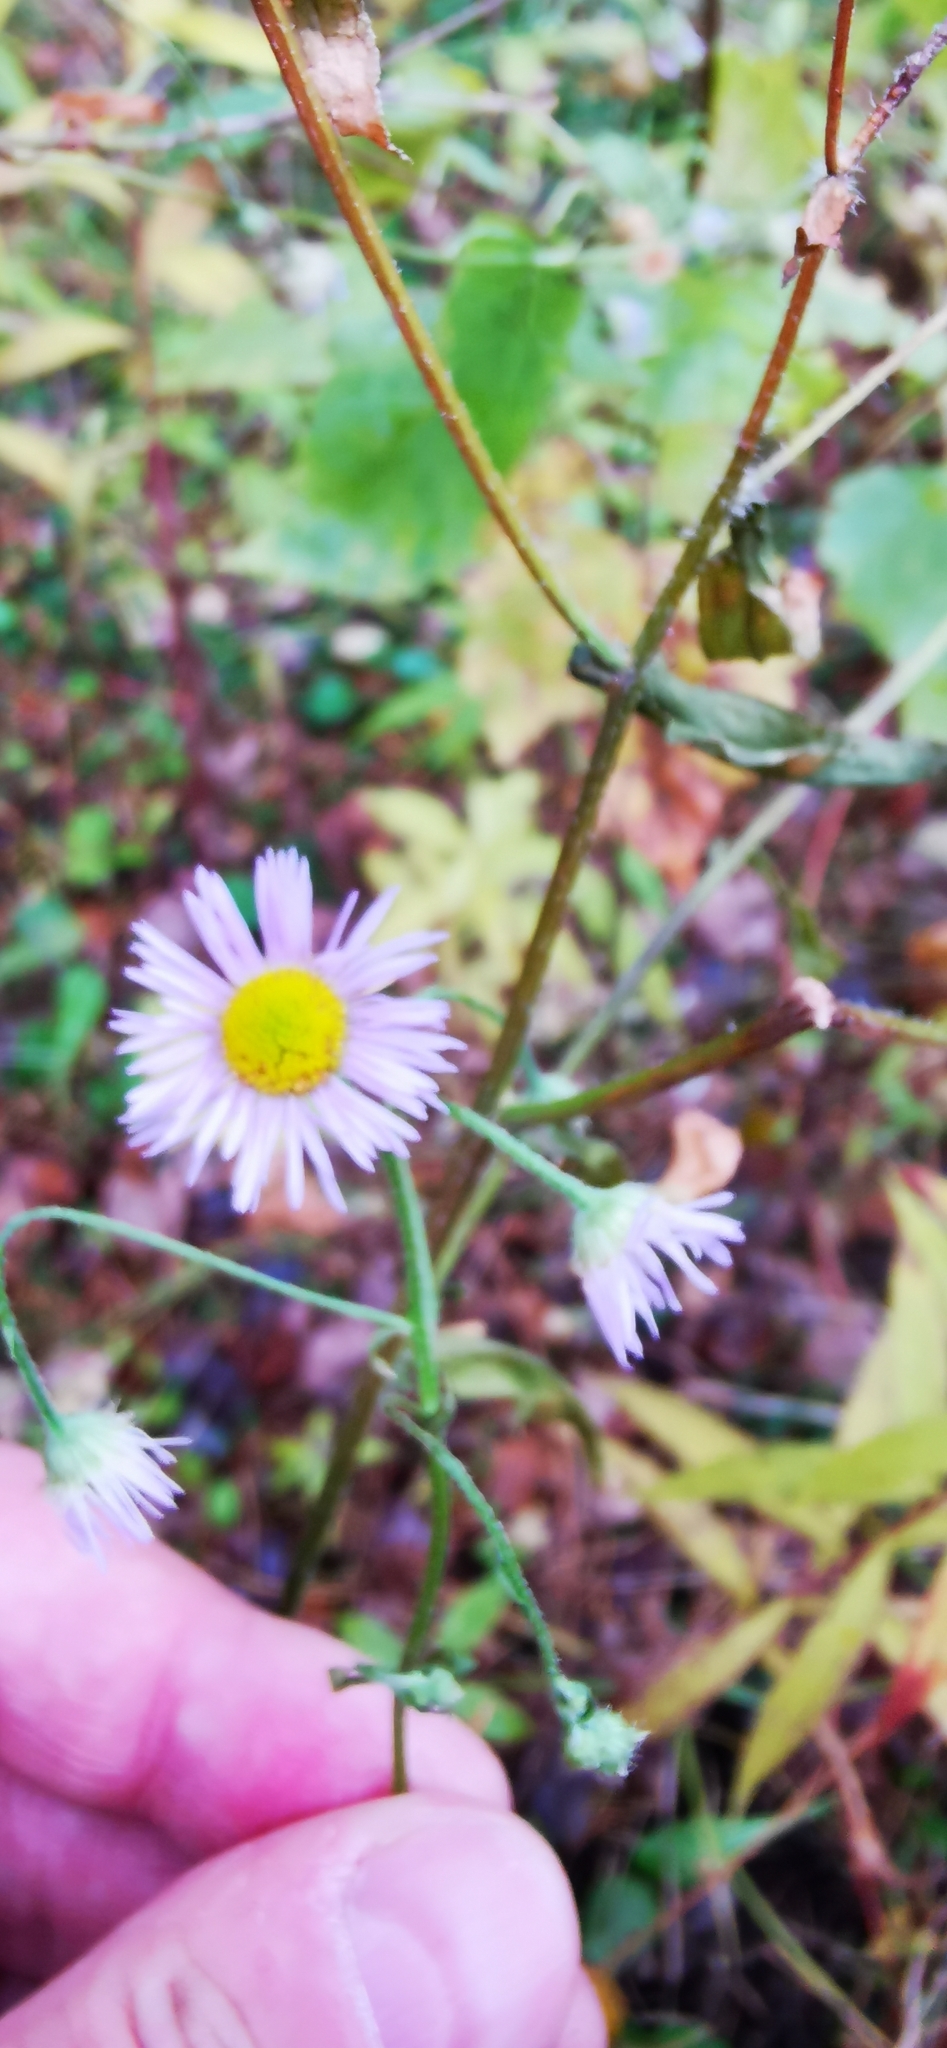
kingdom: Plantae
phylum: Tracheophyta
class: Magnoliopsida
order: Asterales
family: Asteraceae
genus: Erigeron
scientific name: Erigeron annuus
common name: Tall fleabane
